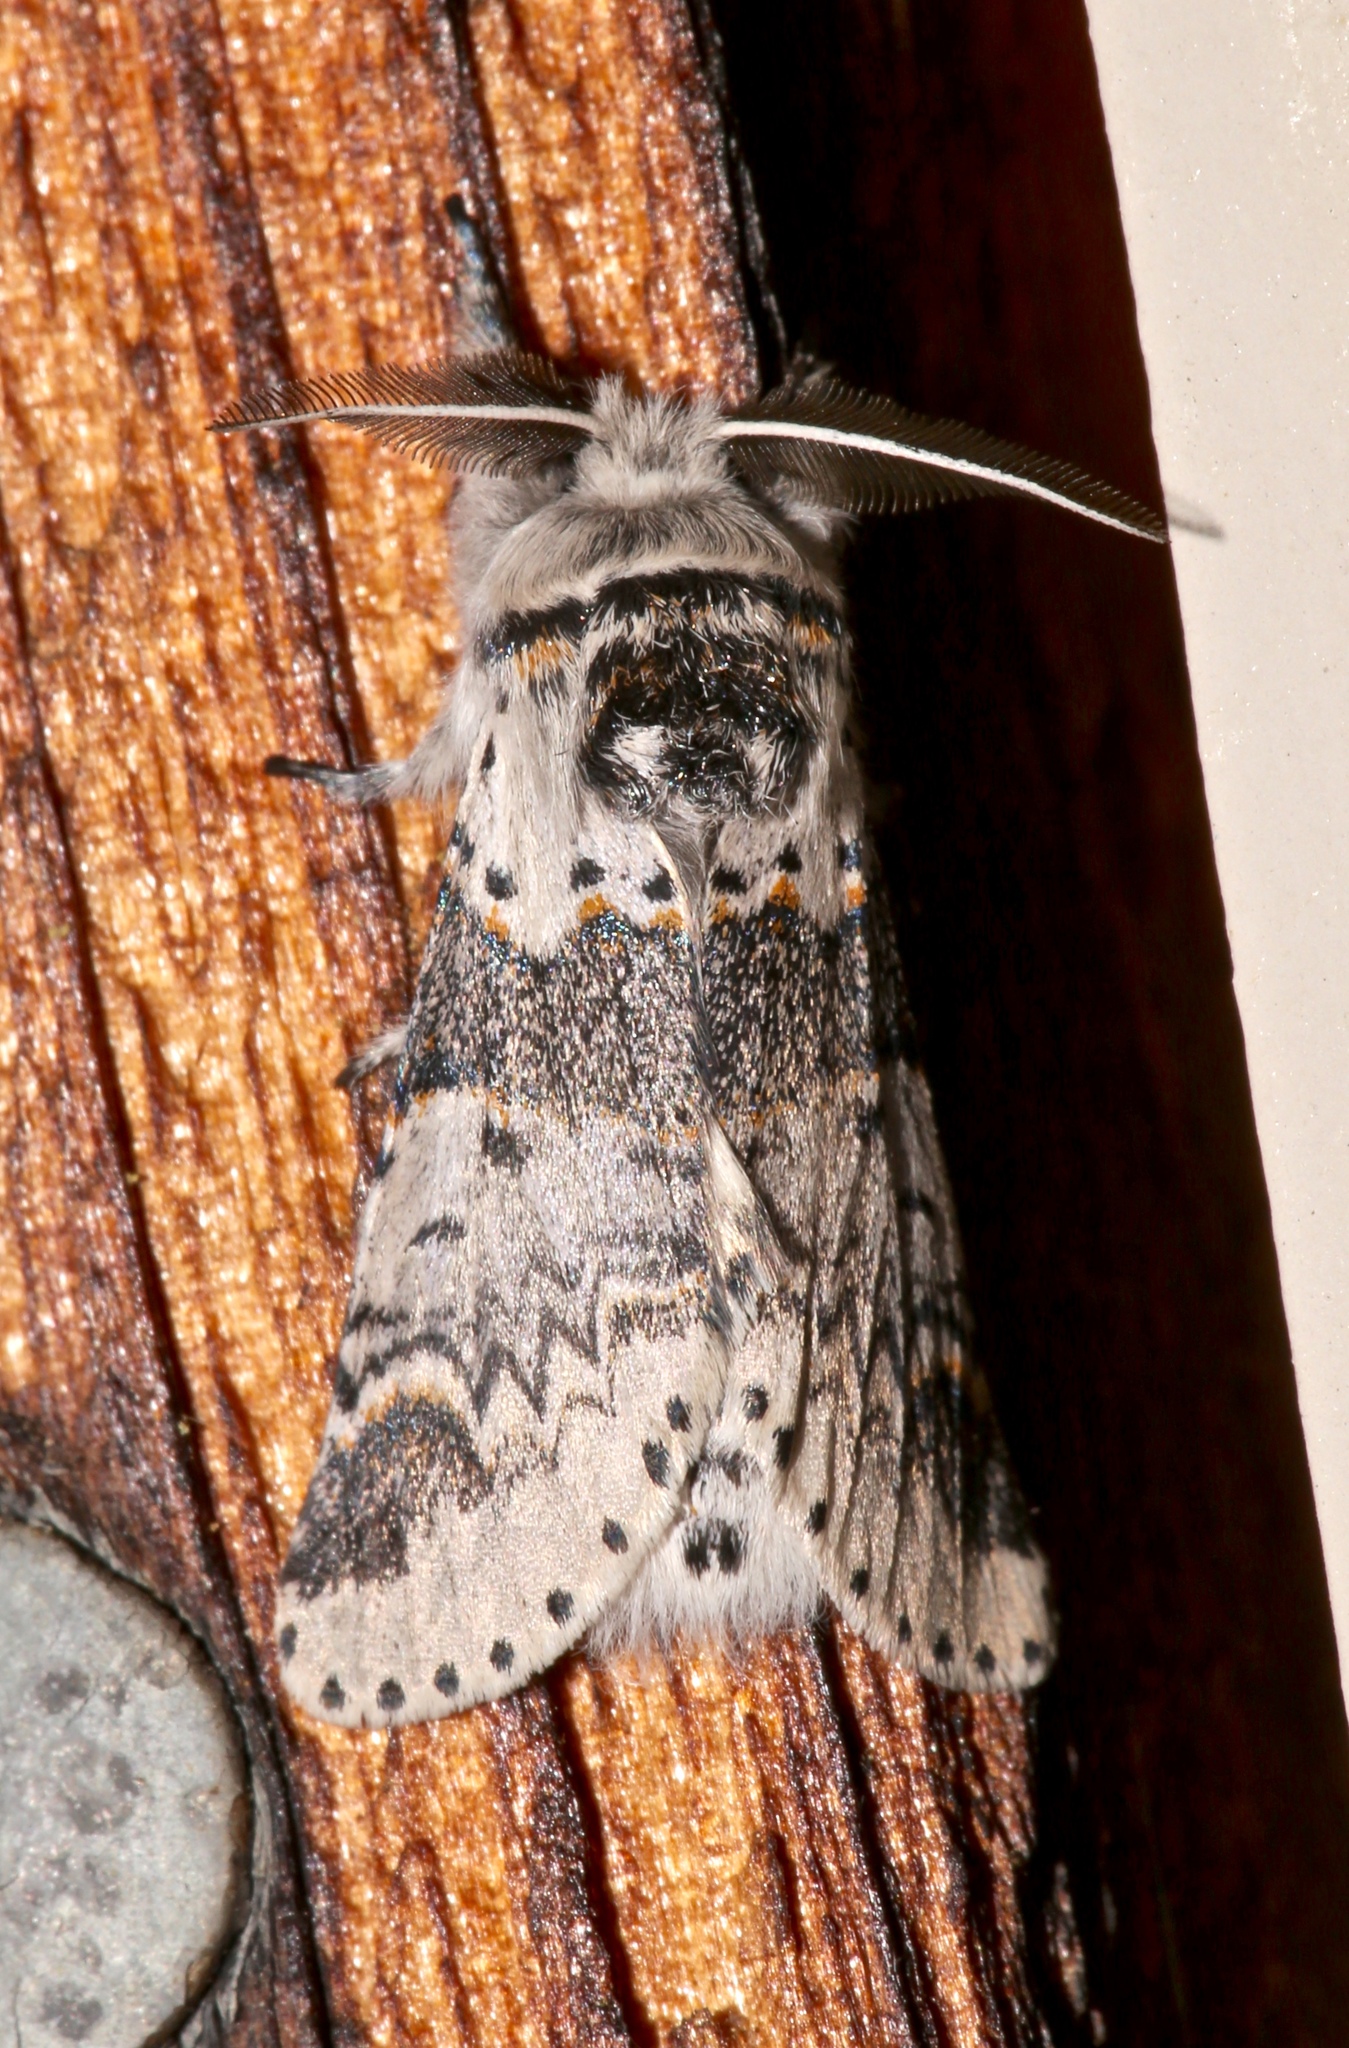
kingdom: Animalia
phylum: Arthropoda
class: Insecta
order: Lepidoptera
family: Notodontidae
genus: Furcula
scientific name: Furcula occidentalis
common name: Western furcula moth
